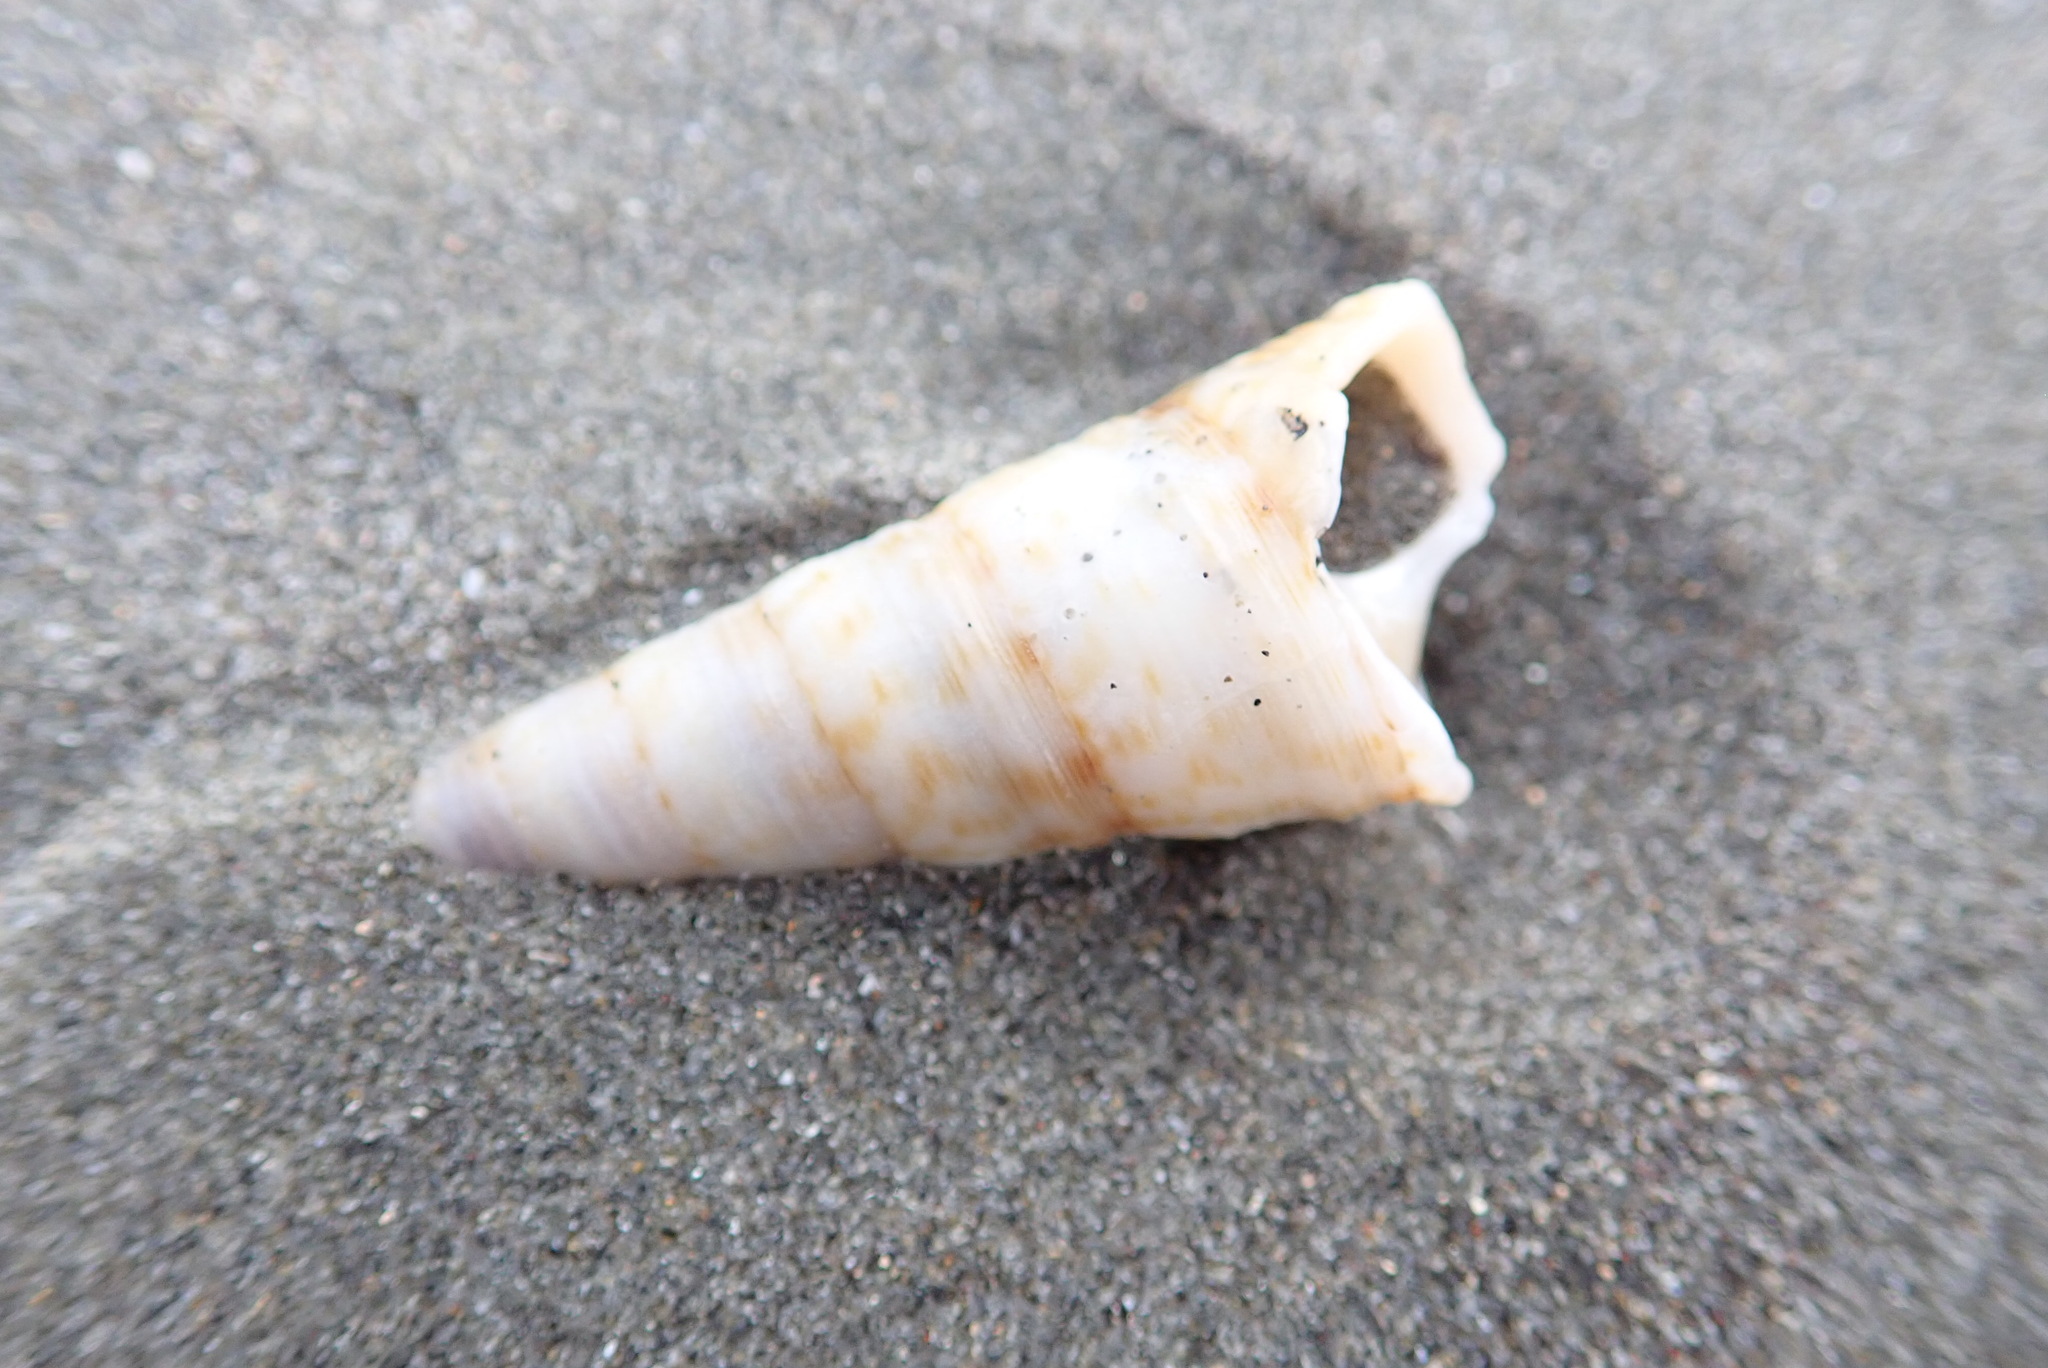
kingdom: Animalia
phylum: Mollusca
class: Gastropoda
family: Turritellidae
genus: Maoricolpus
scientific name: Maoricolpus roseus
